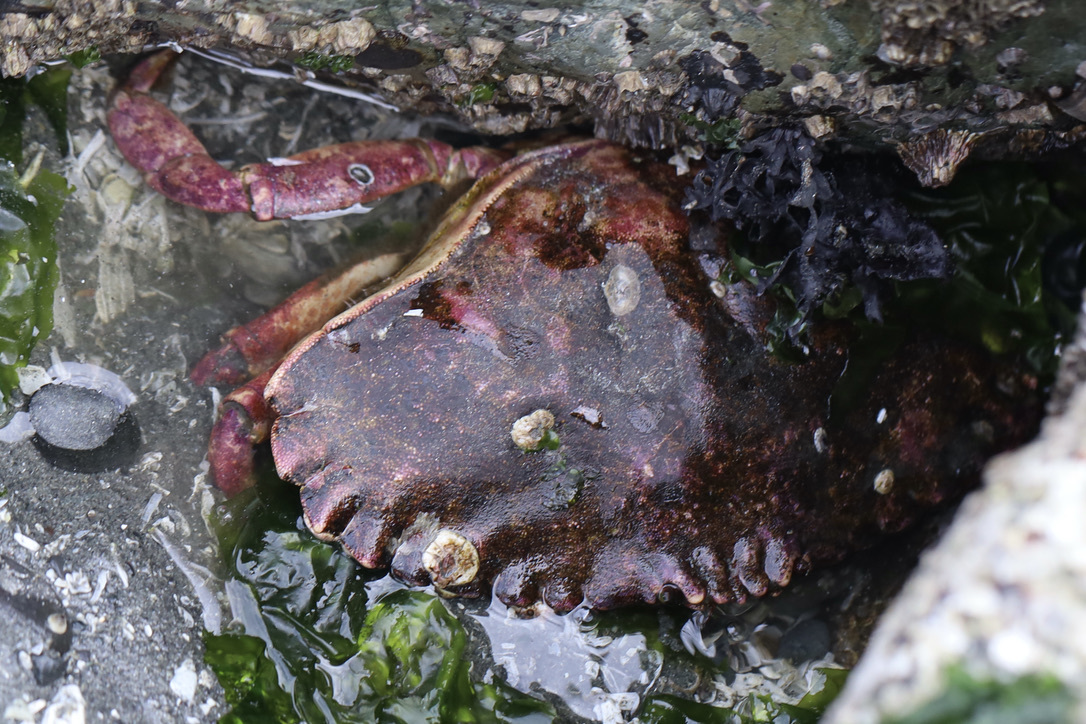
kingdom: Animalia
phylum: Arthropoda
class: Malacostraca
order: Decapoda
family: Cancridae
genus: Cancer
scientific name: Cancer productus
